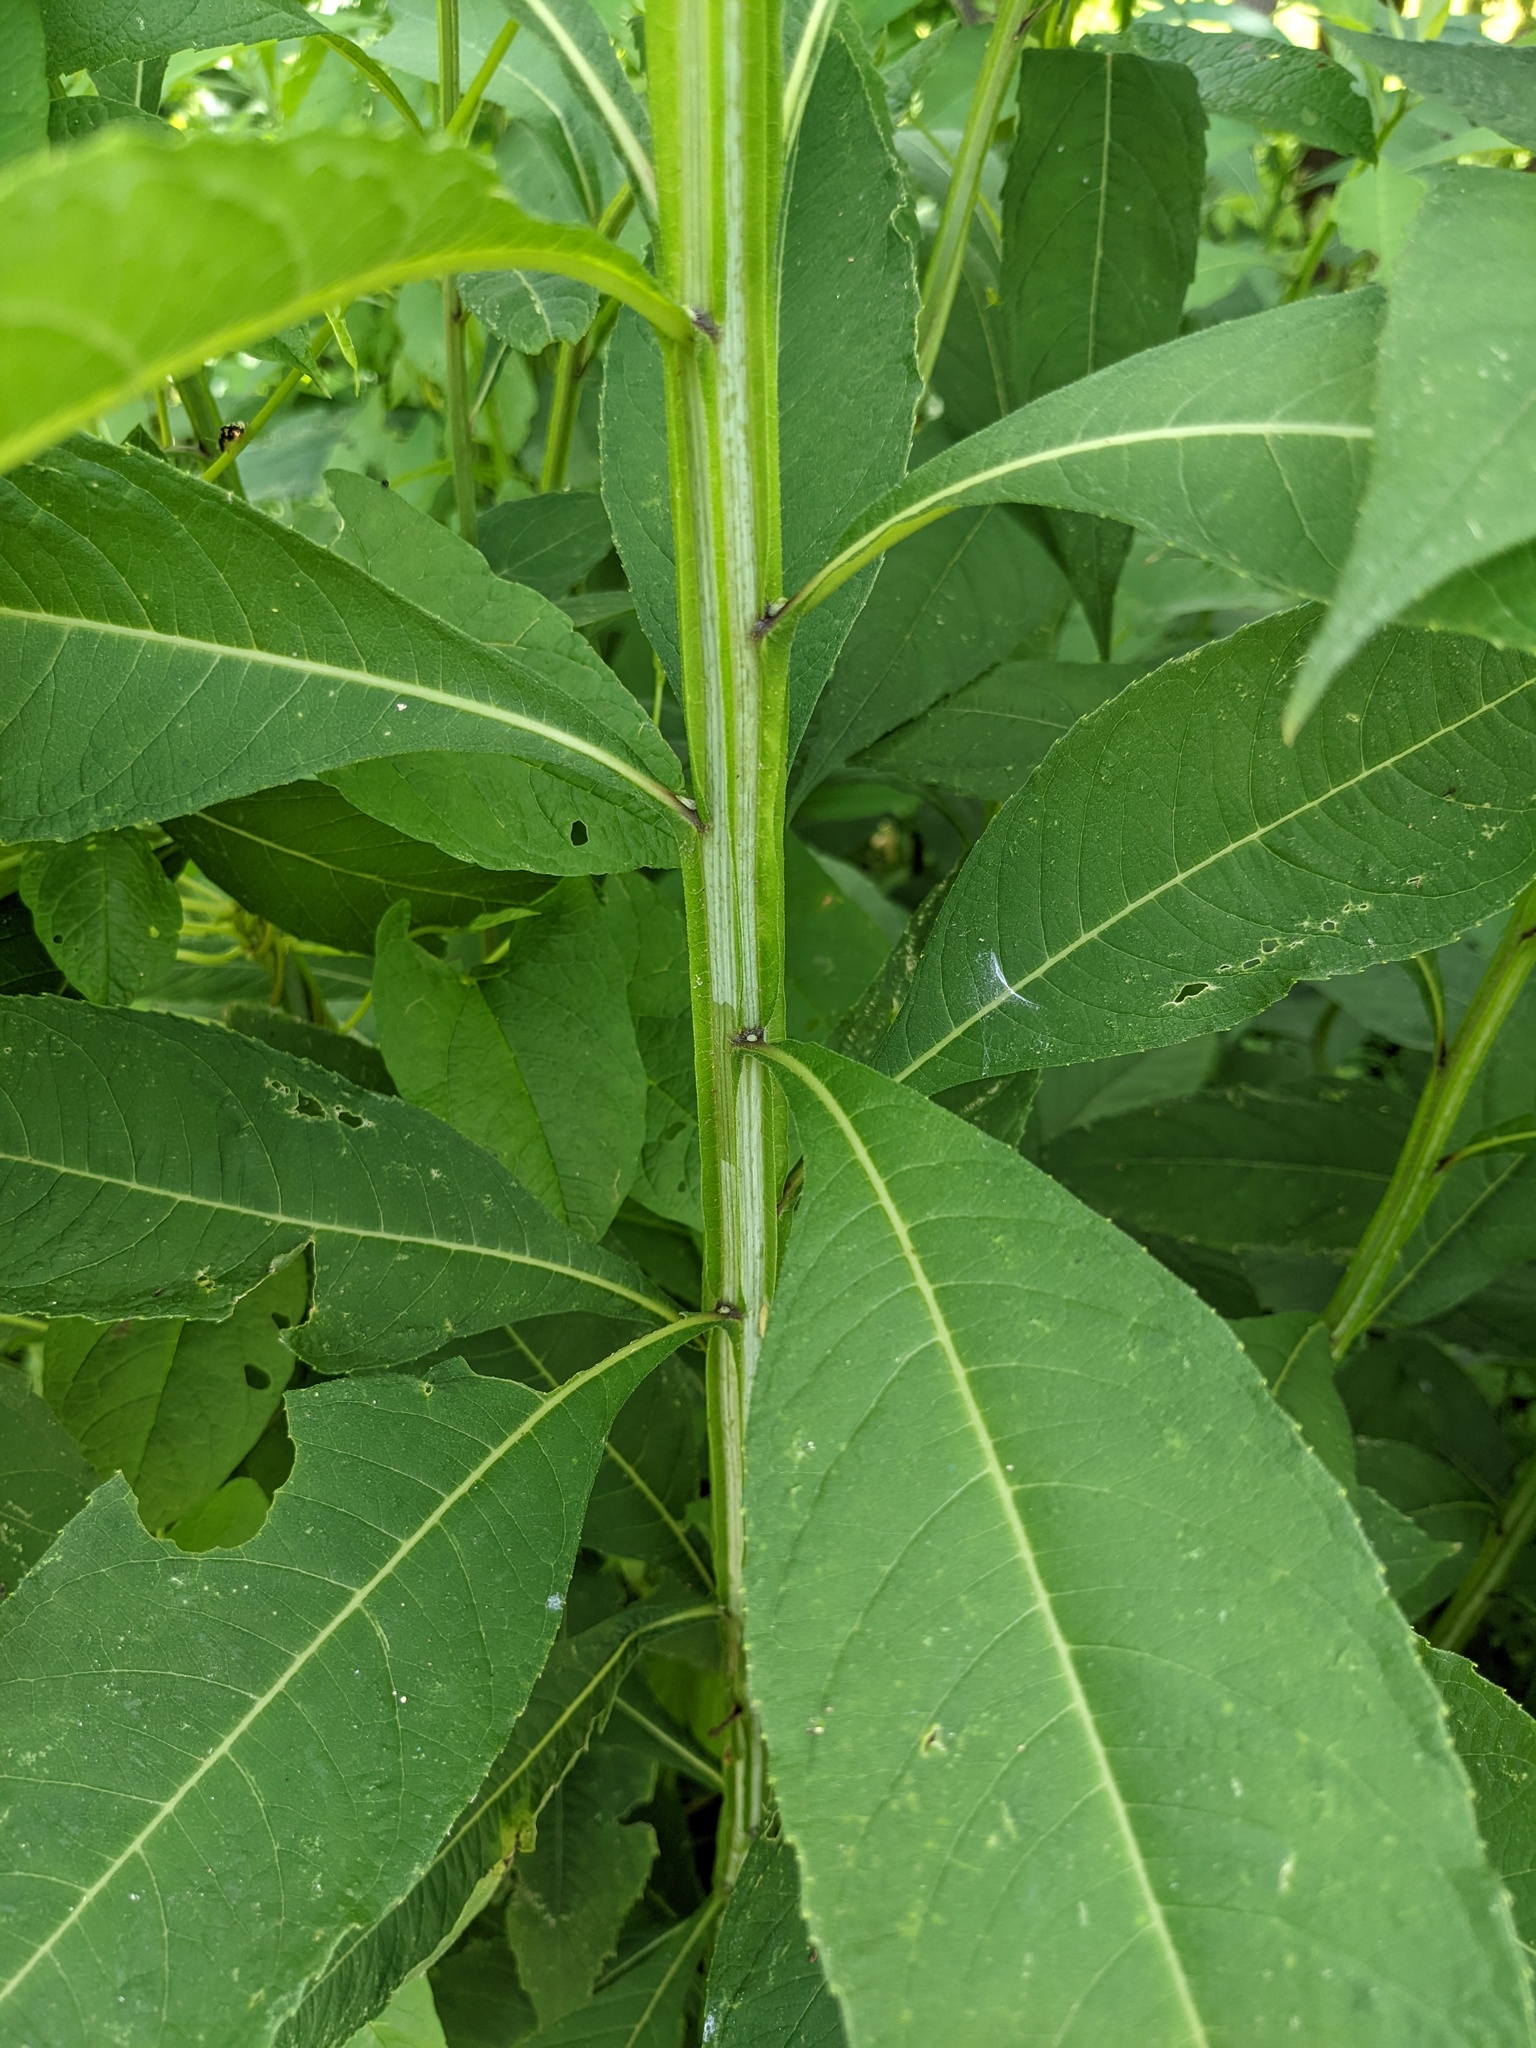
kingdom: Plantae
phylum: Tracheophyta
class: Magnoliopsida
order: Asterales
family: Asteraceae
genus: Verbesina
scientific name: Verbesina alternifolia
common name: Wingstem
